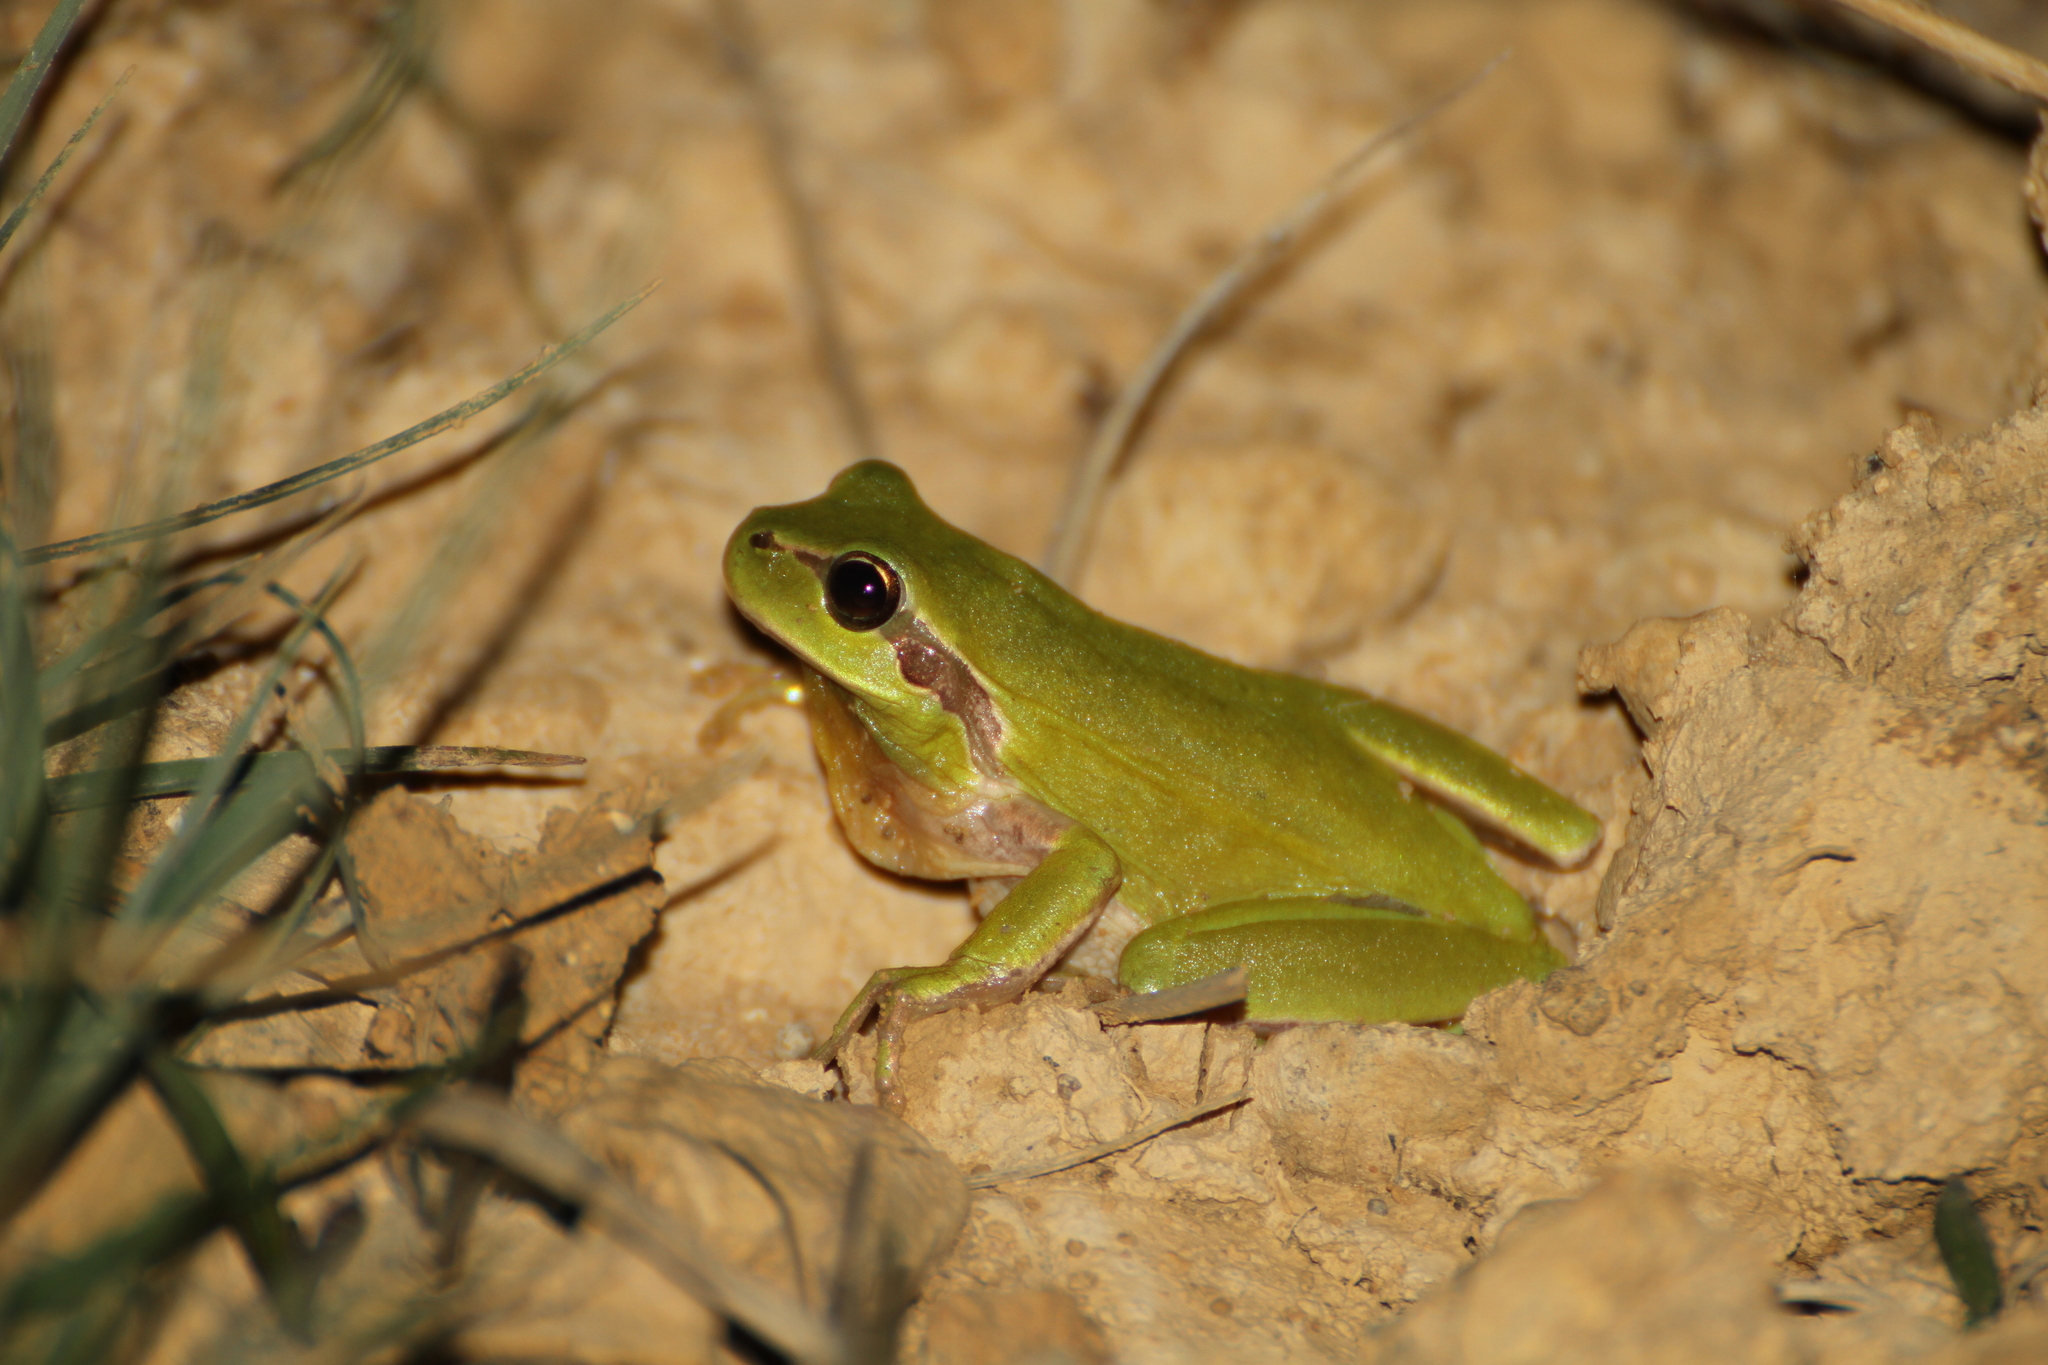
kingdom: Animalia
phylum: Chordata
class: Amphibia
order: Anura
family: Hylidae
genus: Hyla
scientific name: Hyla meridionalis
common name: Stripeless tree frog
